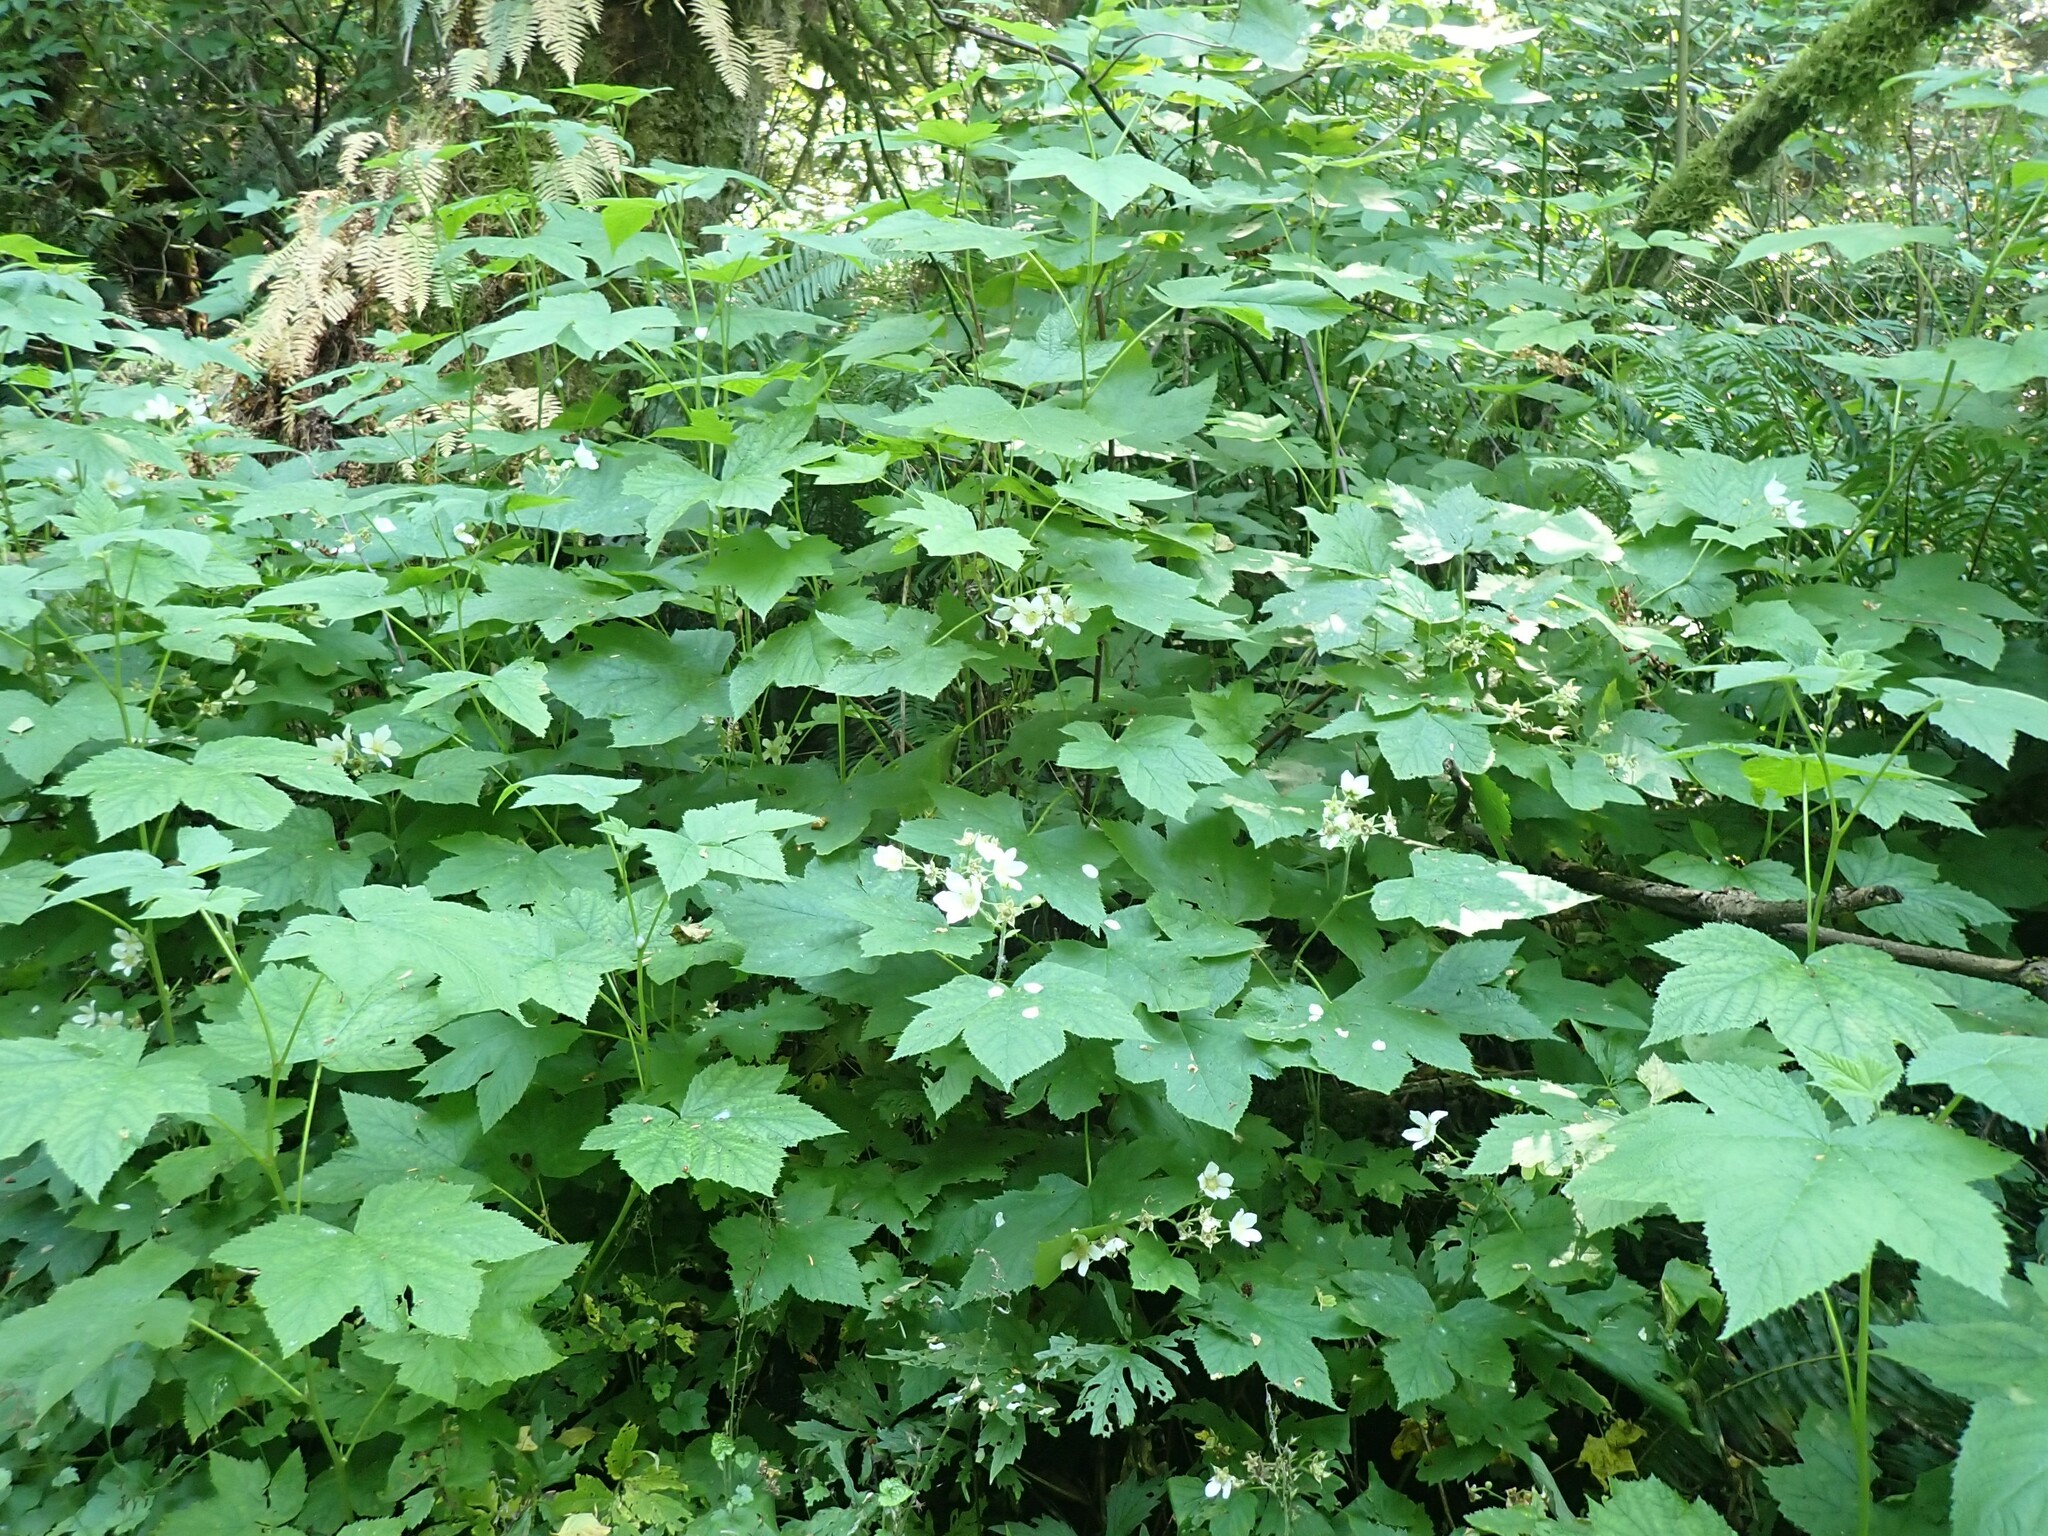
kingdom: Plantae
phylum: Tracheophyta
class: Magnoliopsida
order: Rosales
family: Rosaceae
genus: Rubus
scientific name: Rubus parviflorus
